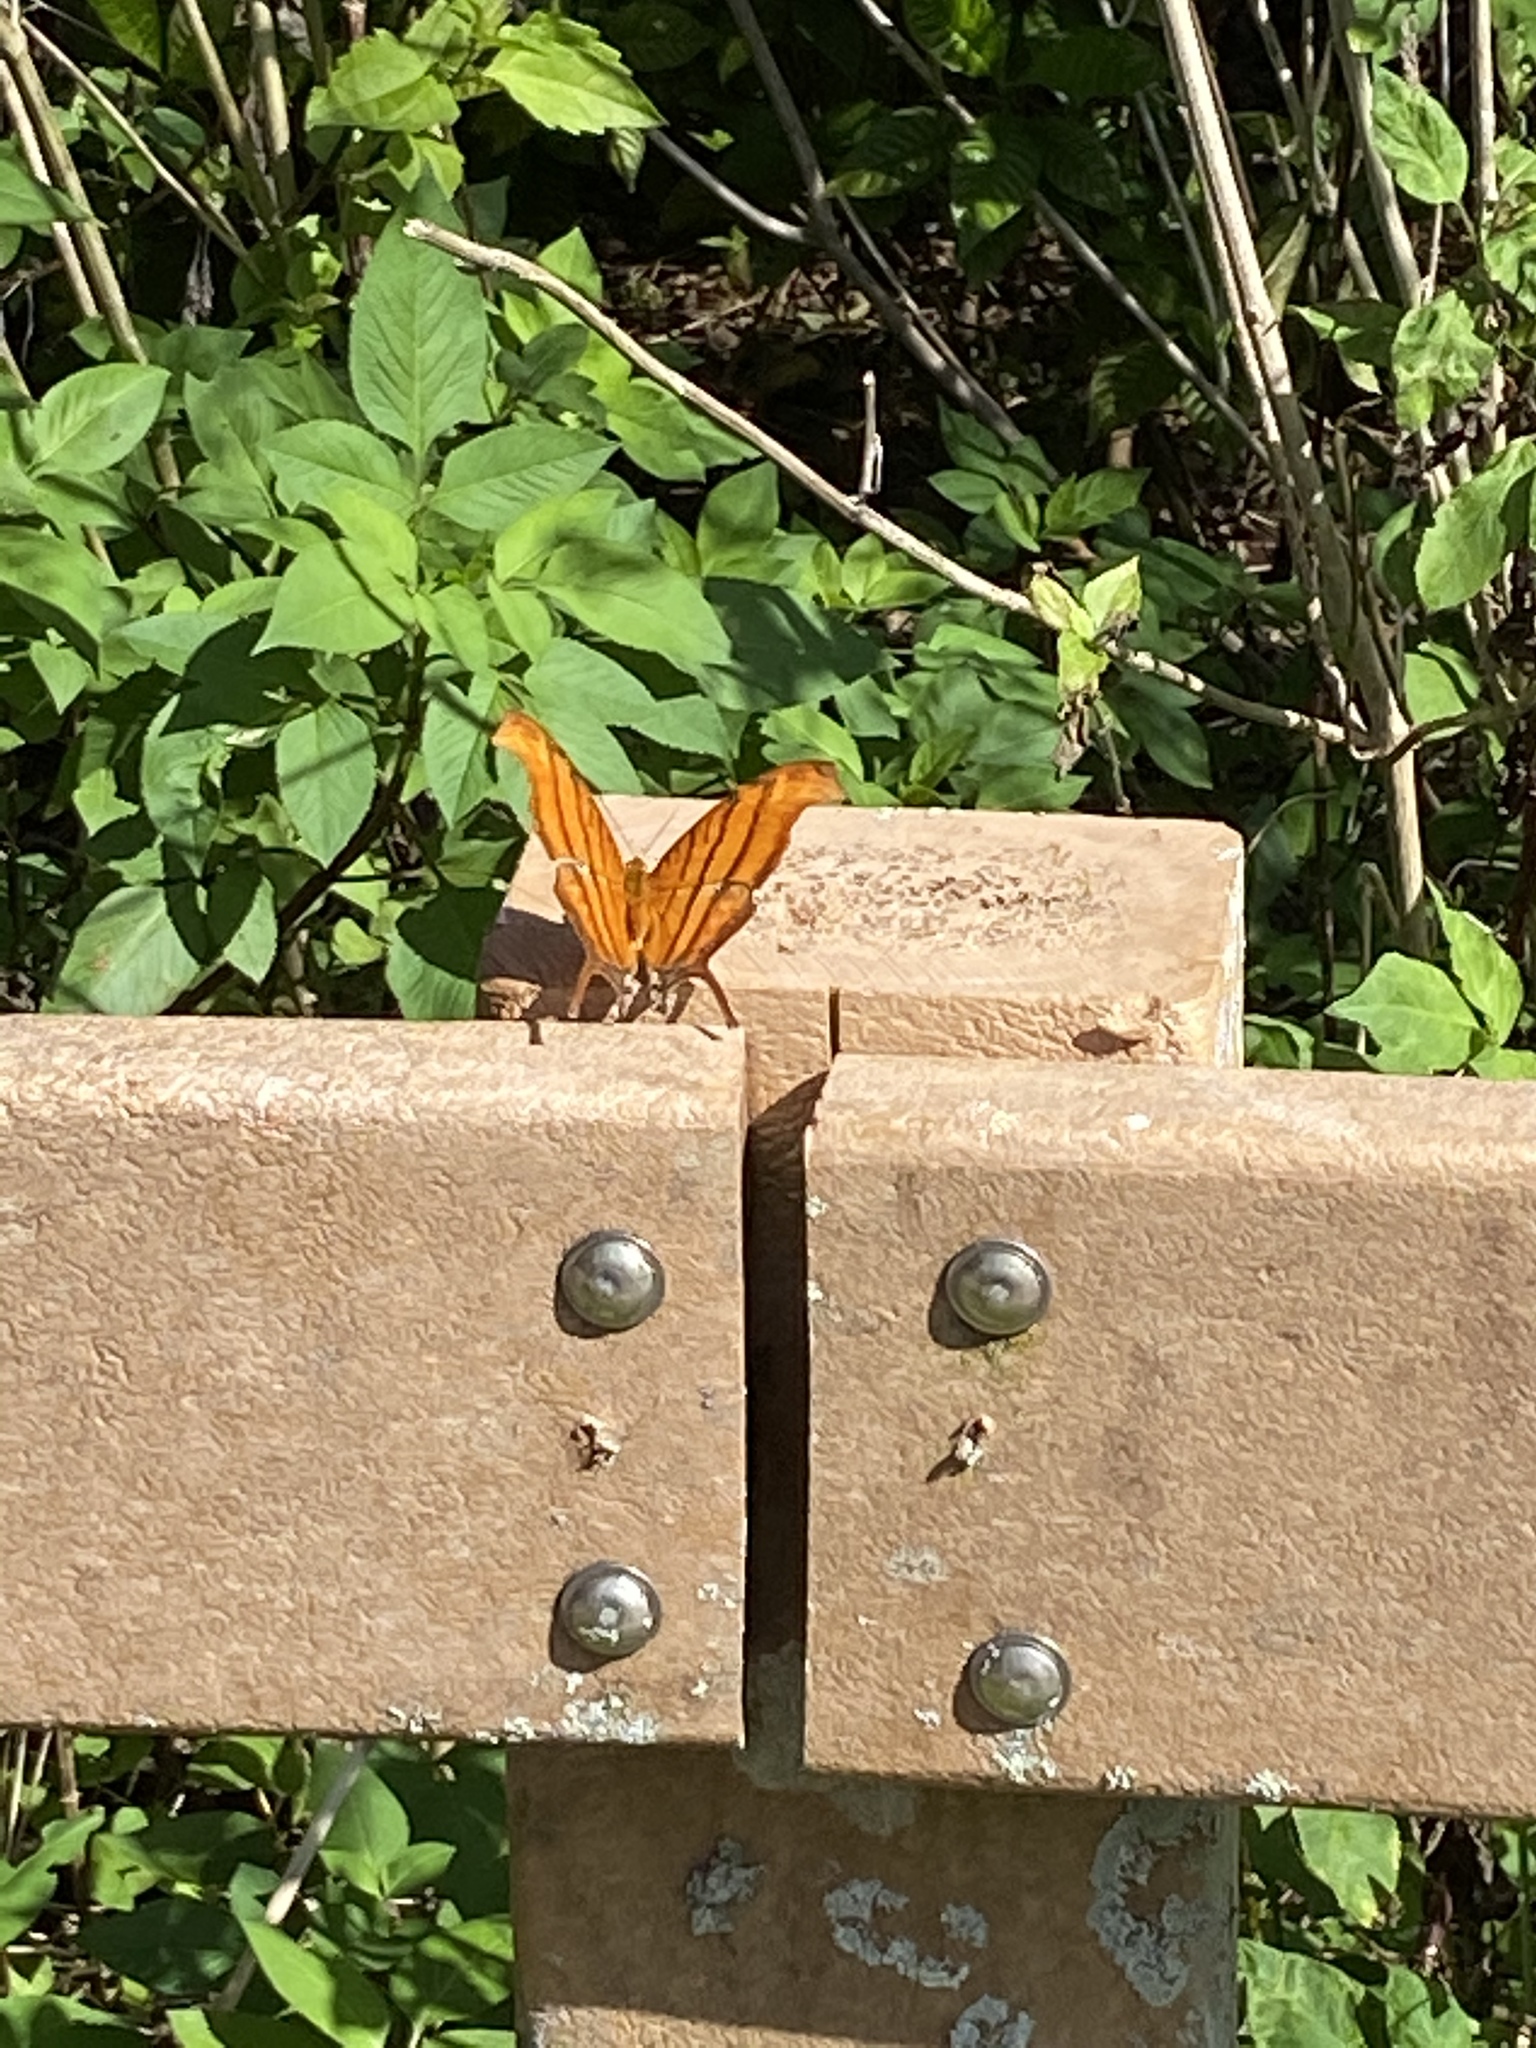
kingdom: Animalia
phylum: Arthropoda
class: Insecta
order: Lepidoptera
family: Nymphalidae
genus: Marpesia
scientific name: Marpesia petreus
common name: Red dagger wing
